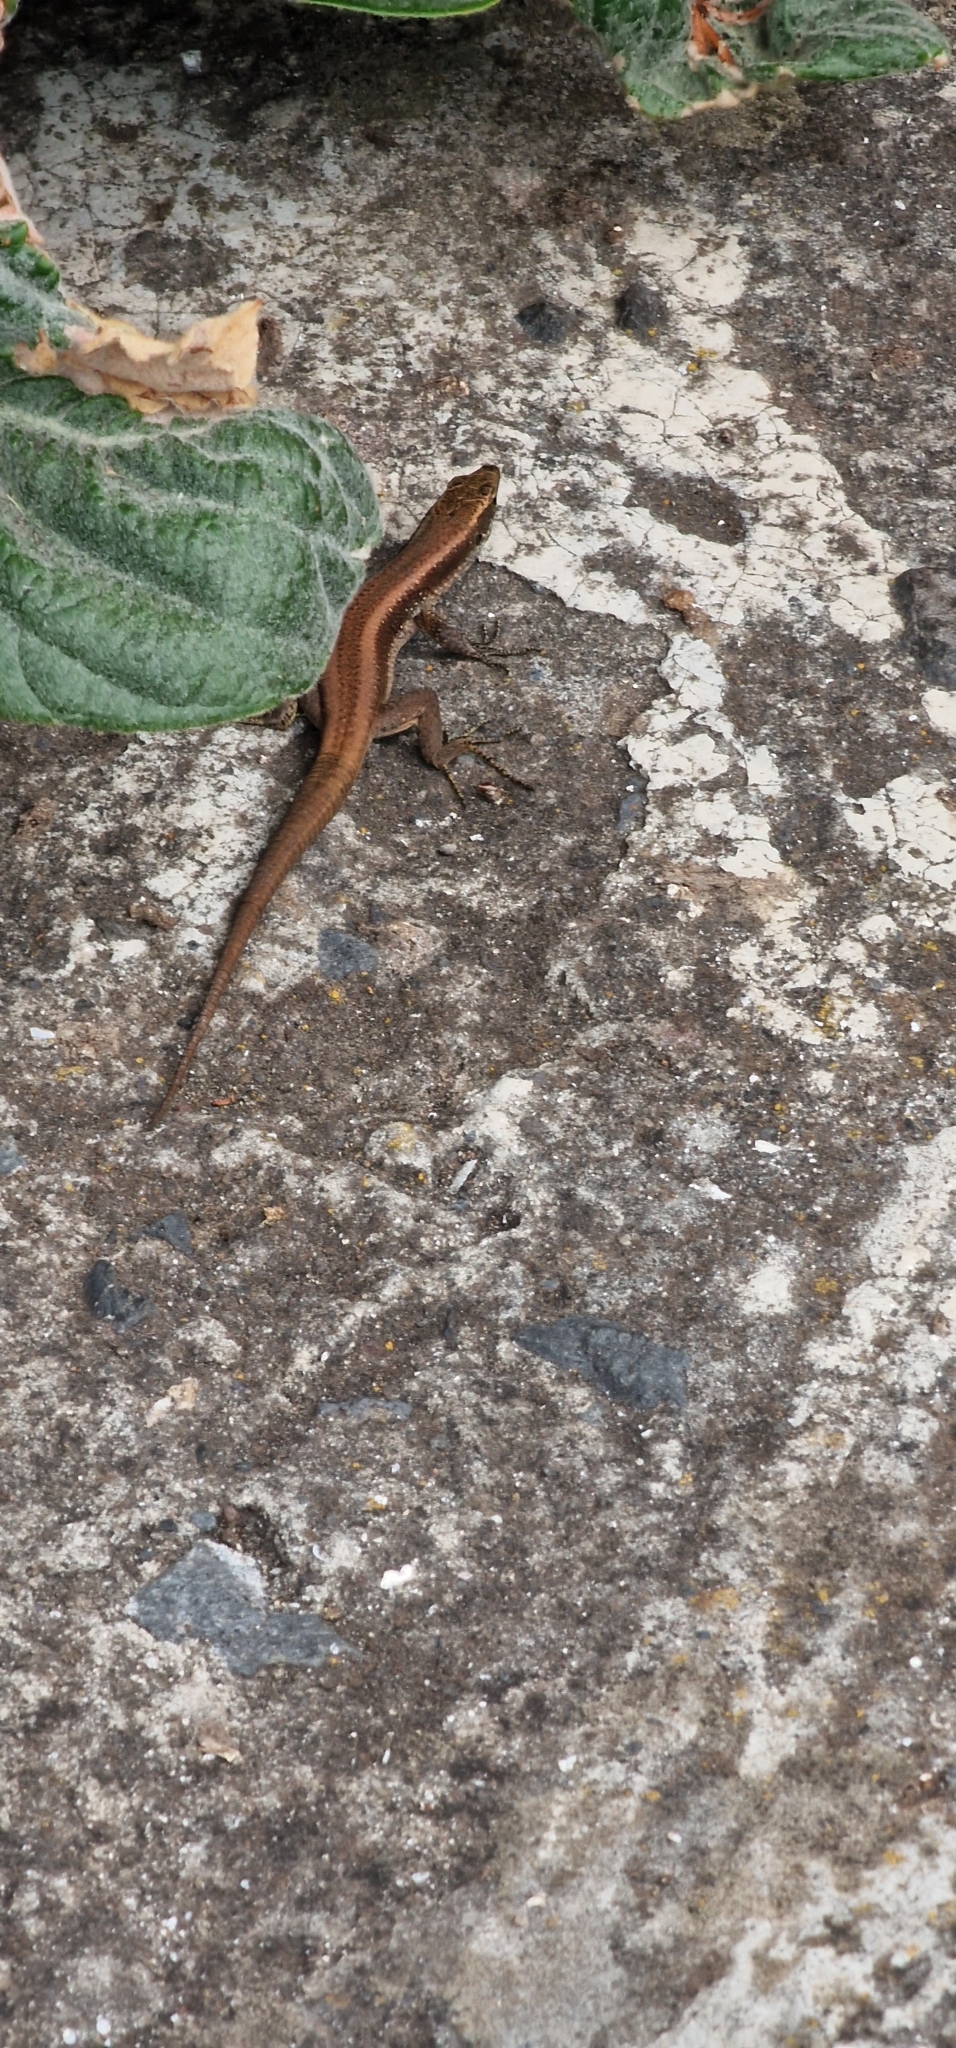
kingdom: Animalia
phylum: Chordata
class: Squamata
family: Lacertidae
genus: Teira
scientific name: Teira dugesii
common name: Madeira lizard
